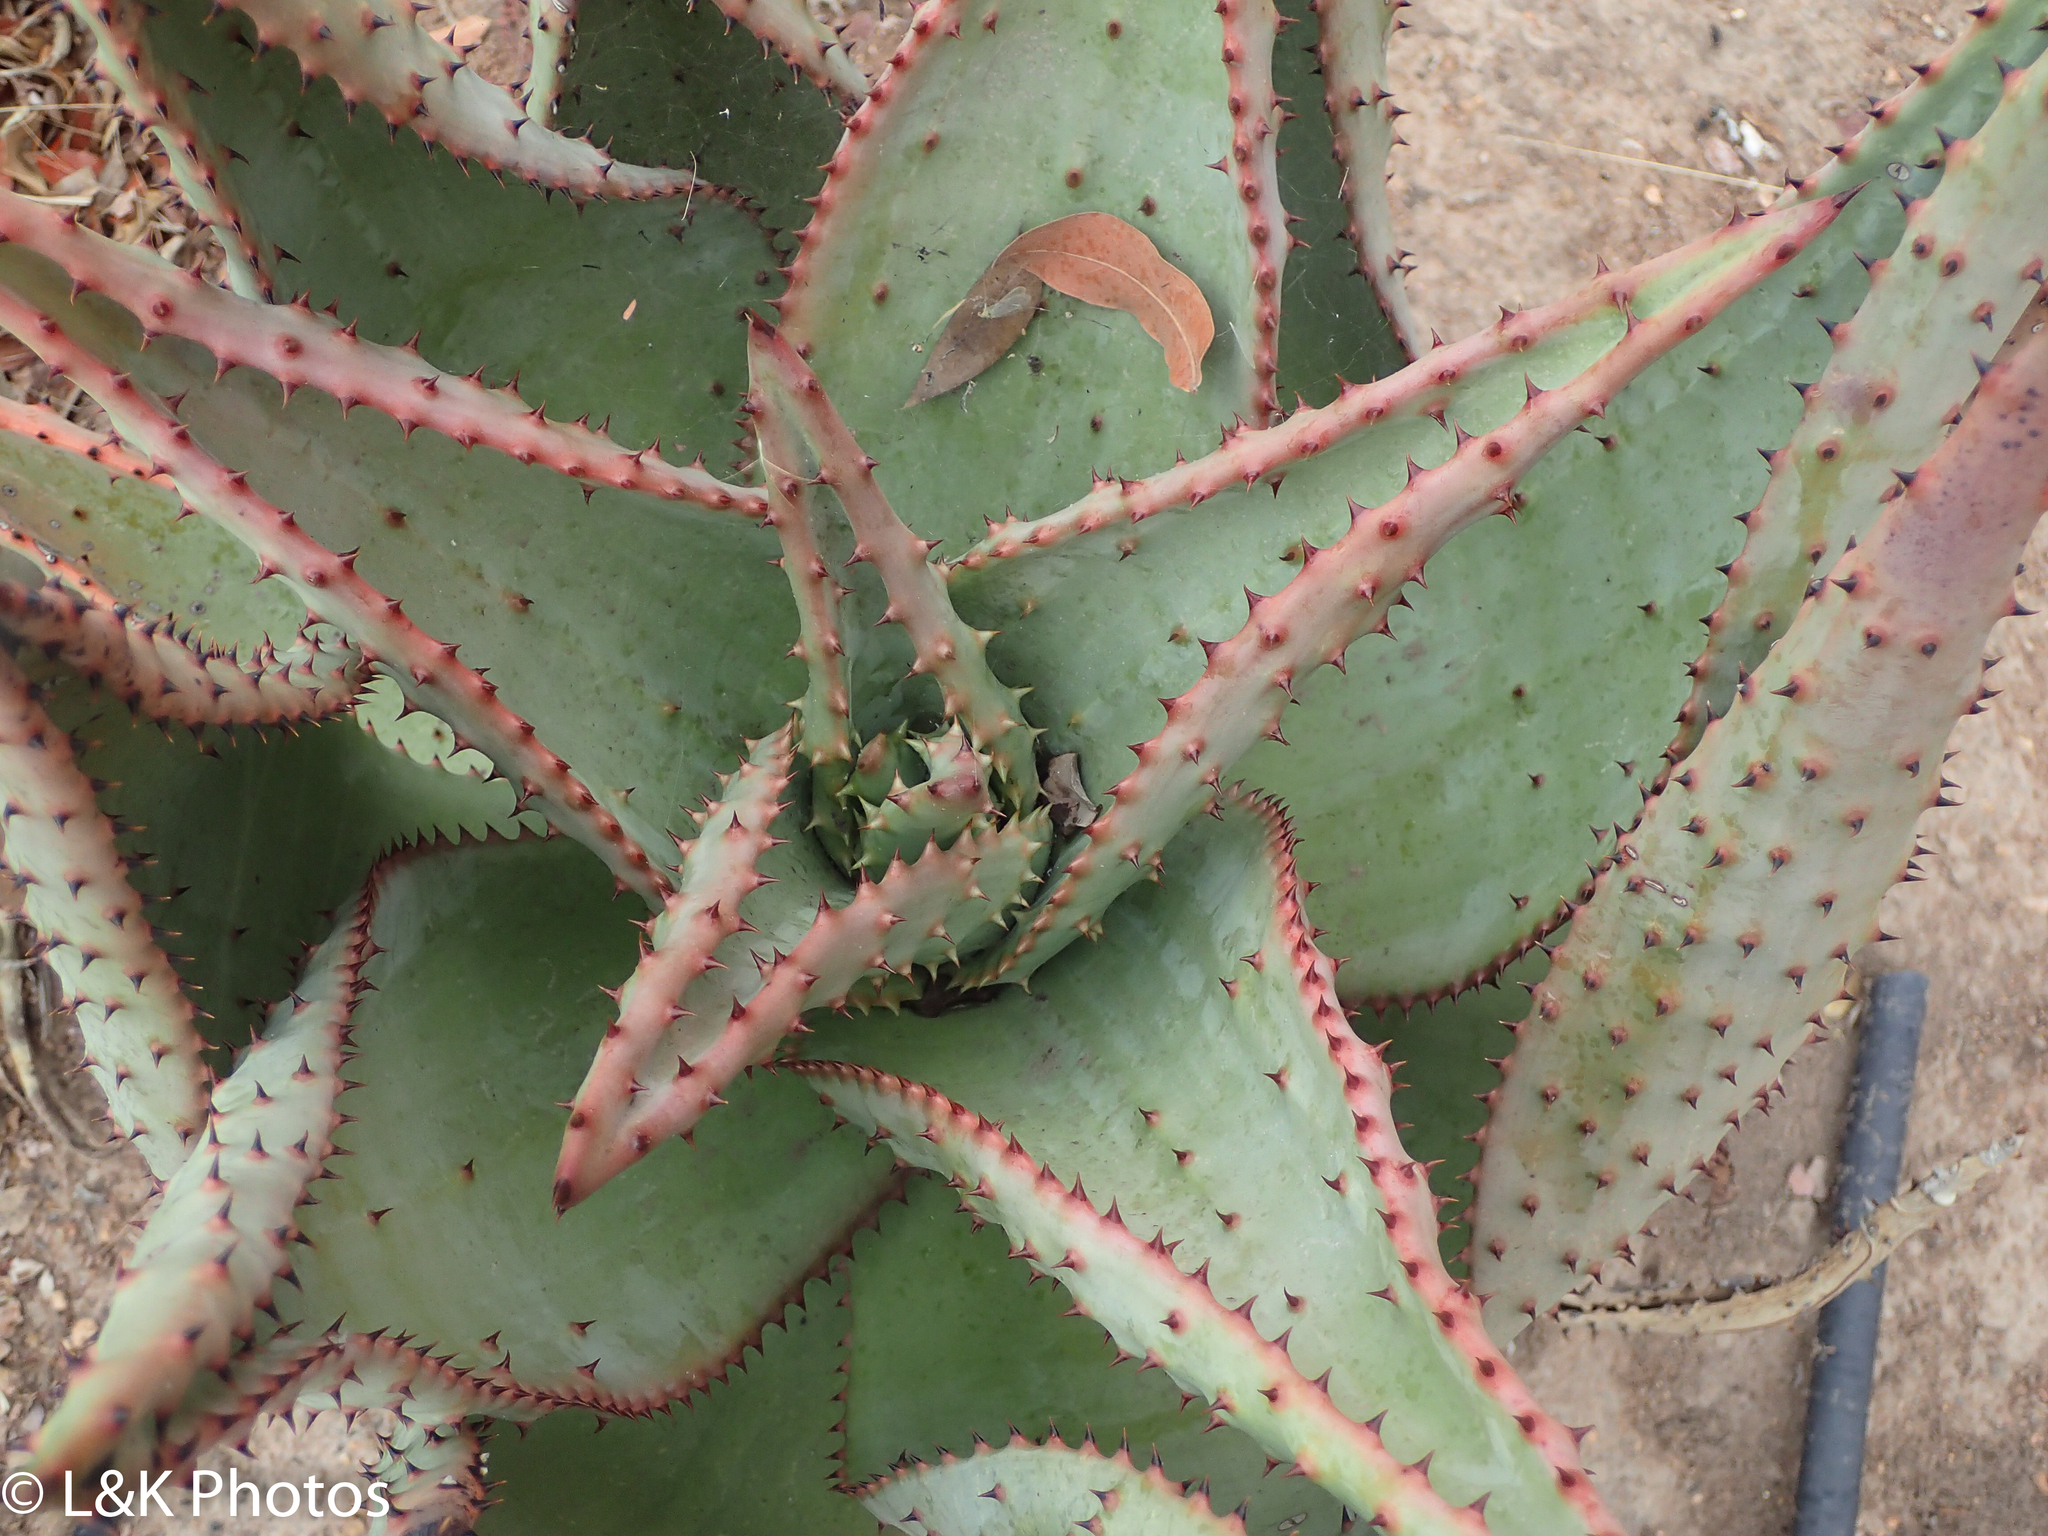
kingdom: Plantae
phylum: Tracheophyta
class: Liliopsida
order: Asparagales
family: Asphodelaceae
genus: Aloe
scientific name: Aloe marlothii
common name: Flat-flowered aloe
